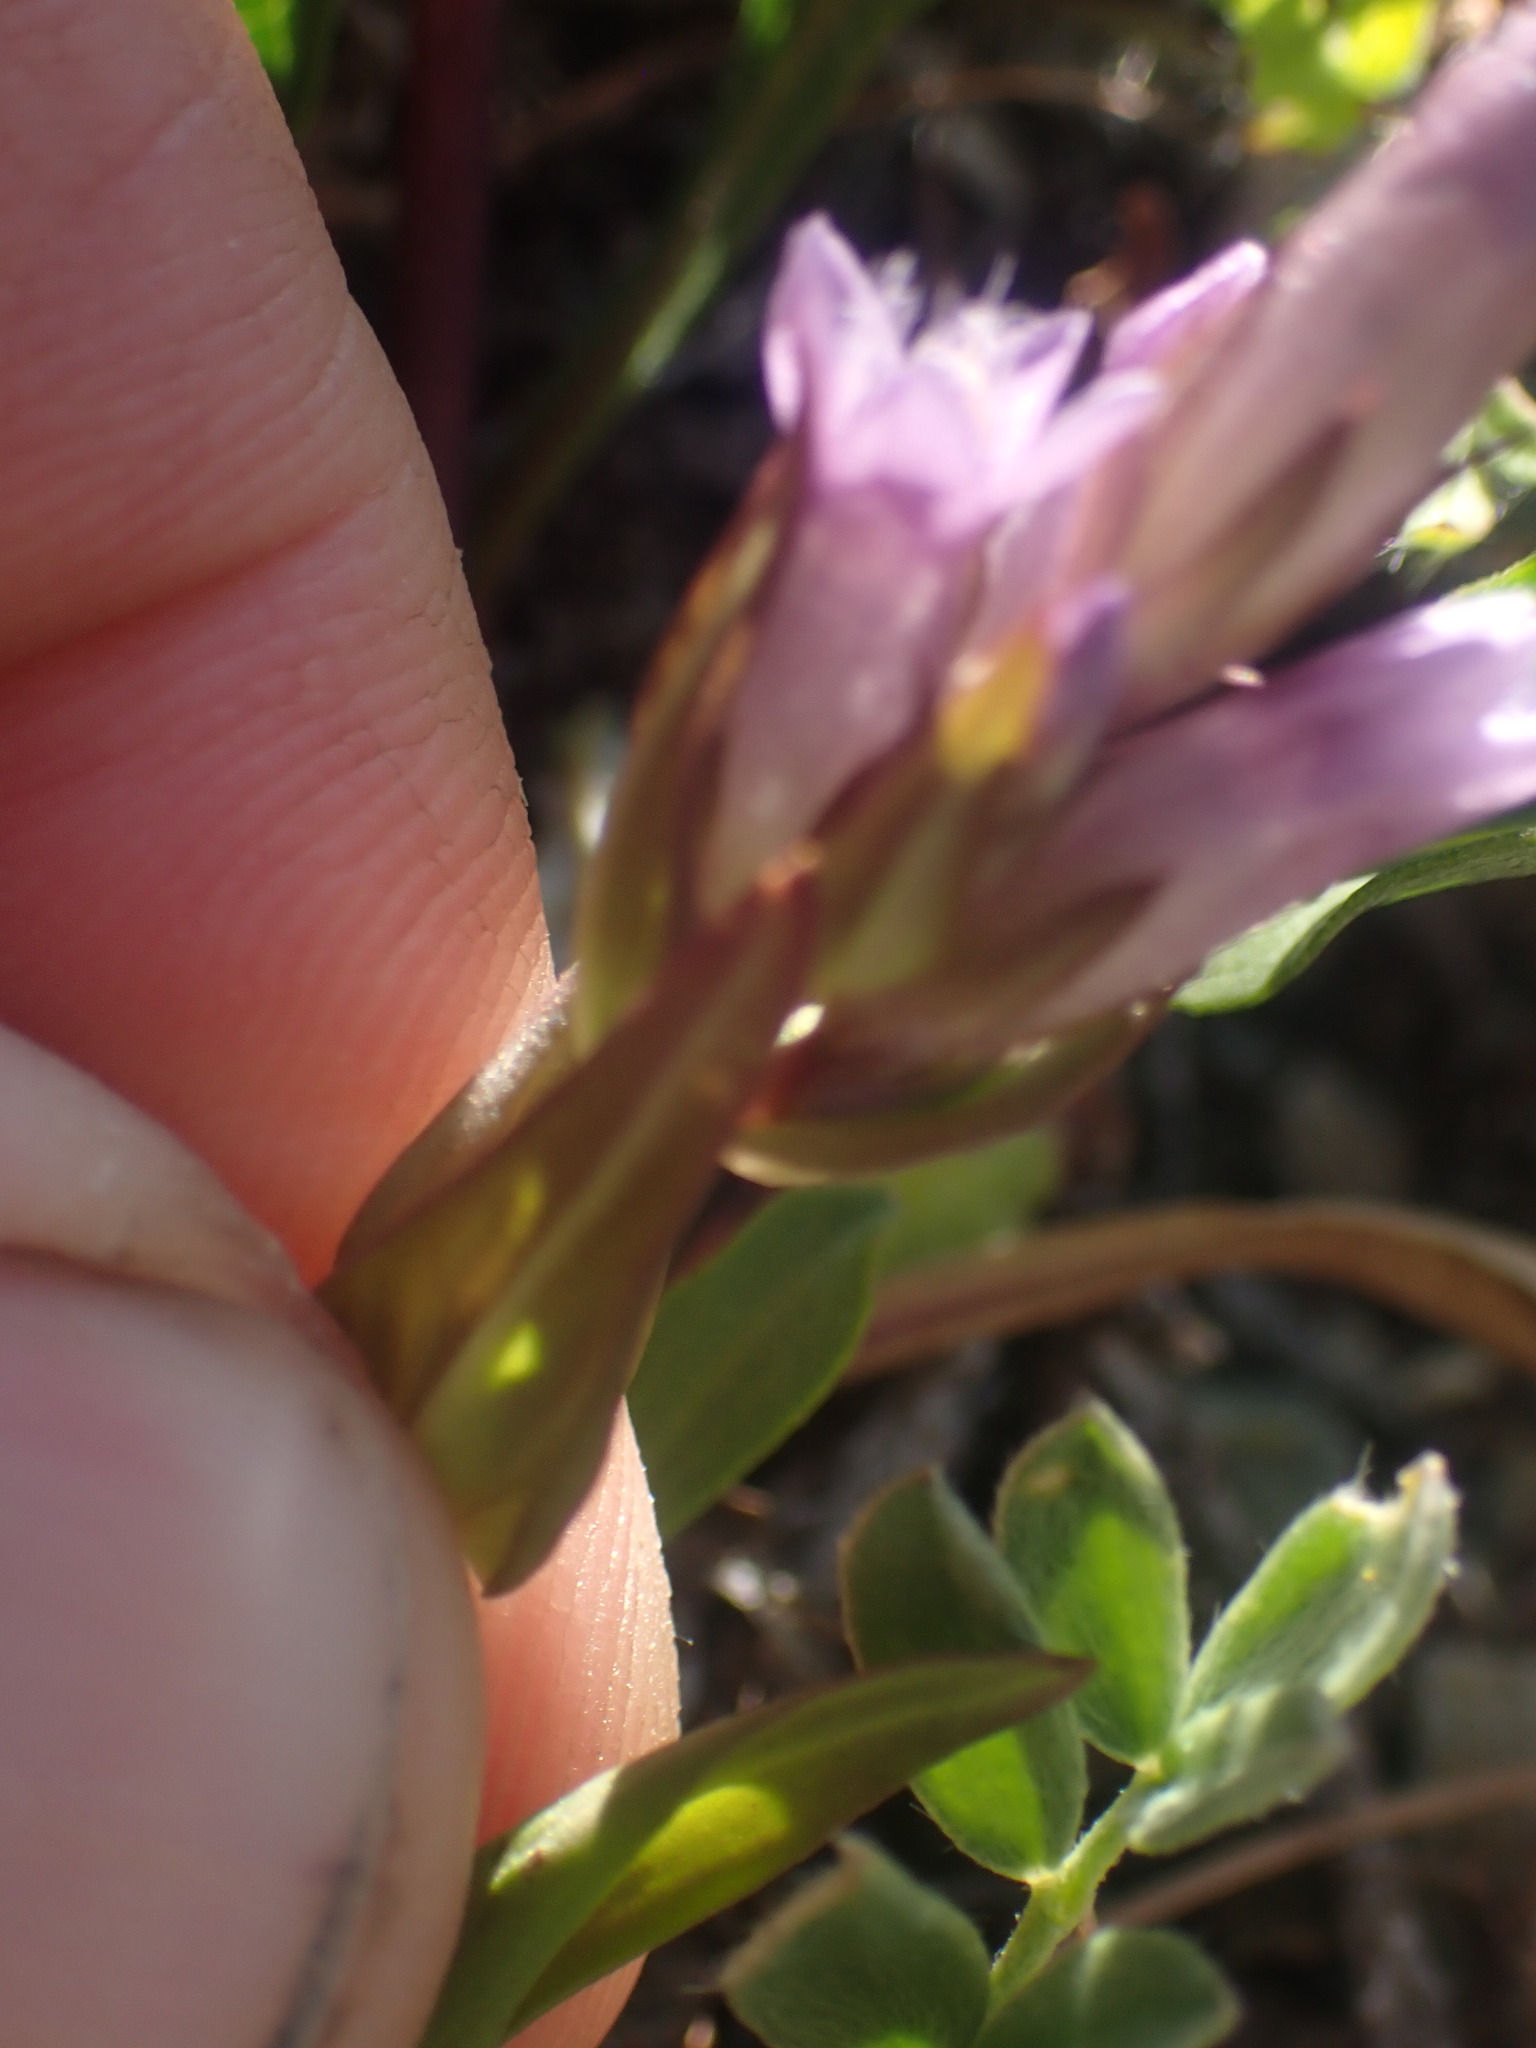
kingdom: Plantae
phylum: Tracheophyta
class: Magnoliopsida
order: Gentianales
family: Gentianaceae
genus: Gentianella
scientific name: Gentianella amarella
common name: Autumn gentian
